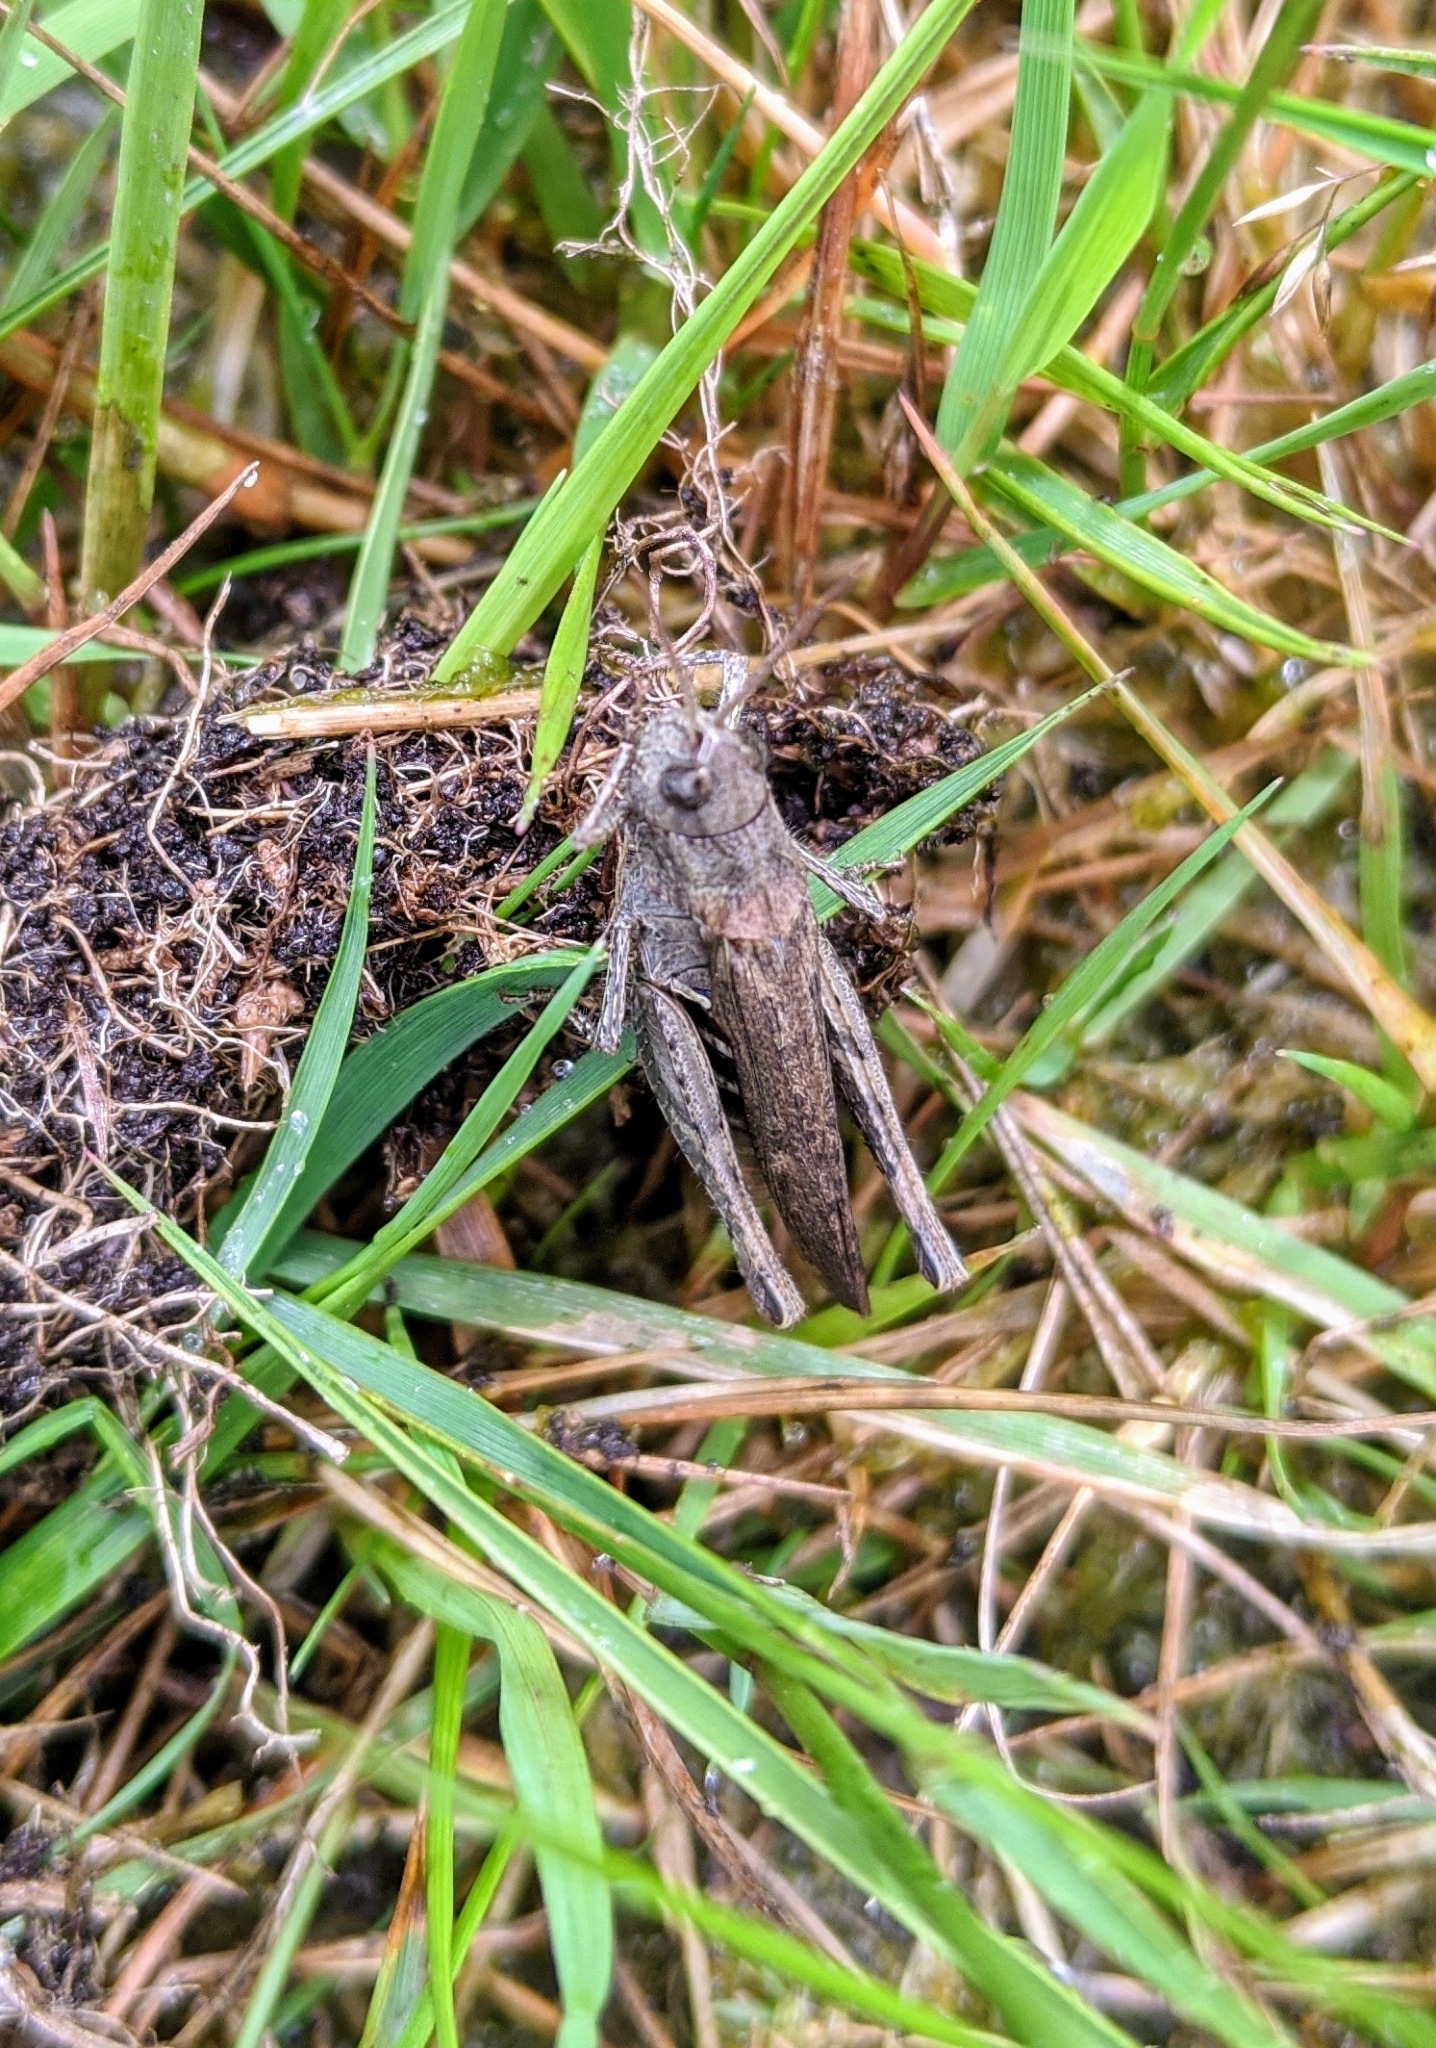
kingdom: Animalia
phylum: Arthropoda
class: Insecta
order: Orthoptera
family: Acrididae
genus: Chorthippus
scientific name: Chorthippus brunneus
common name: Field grasshopper
